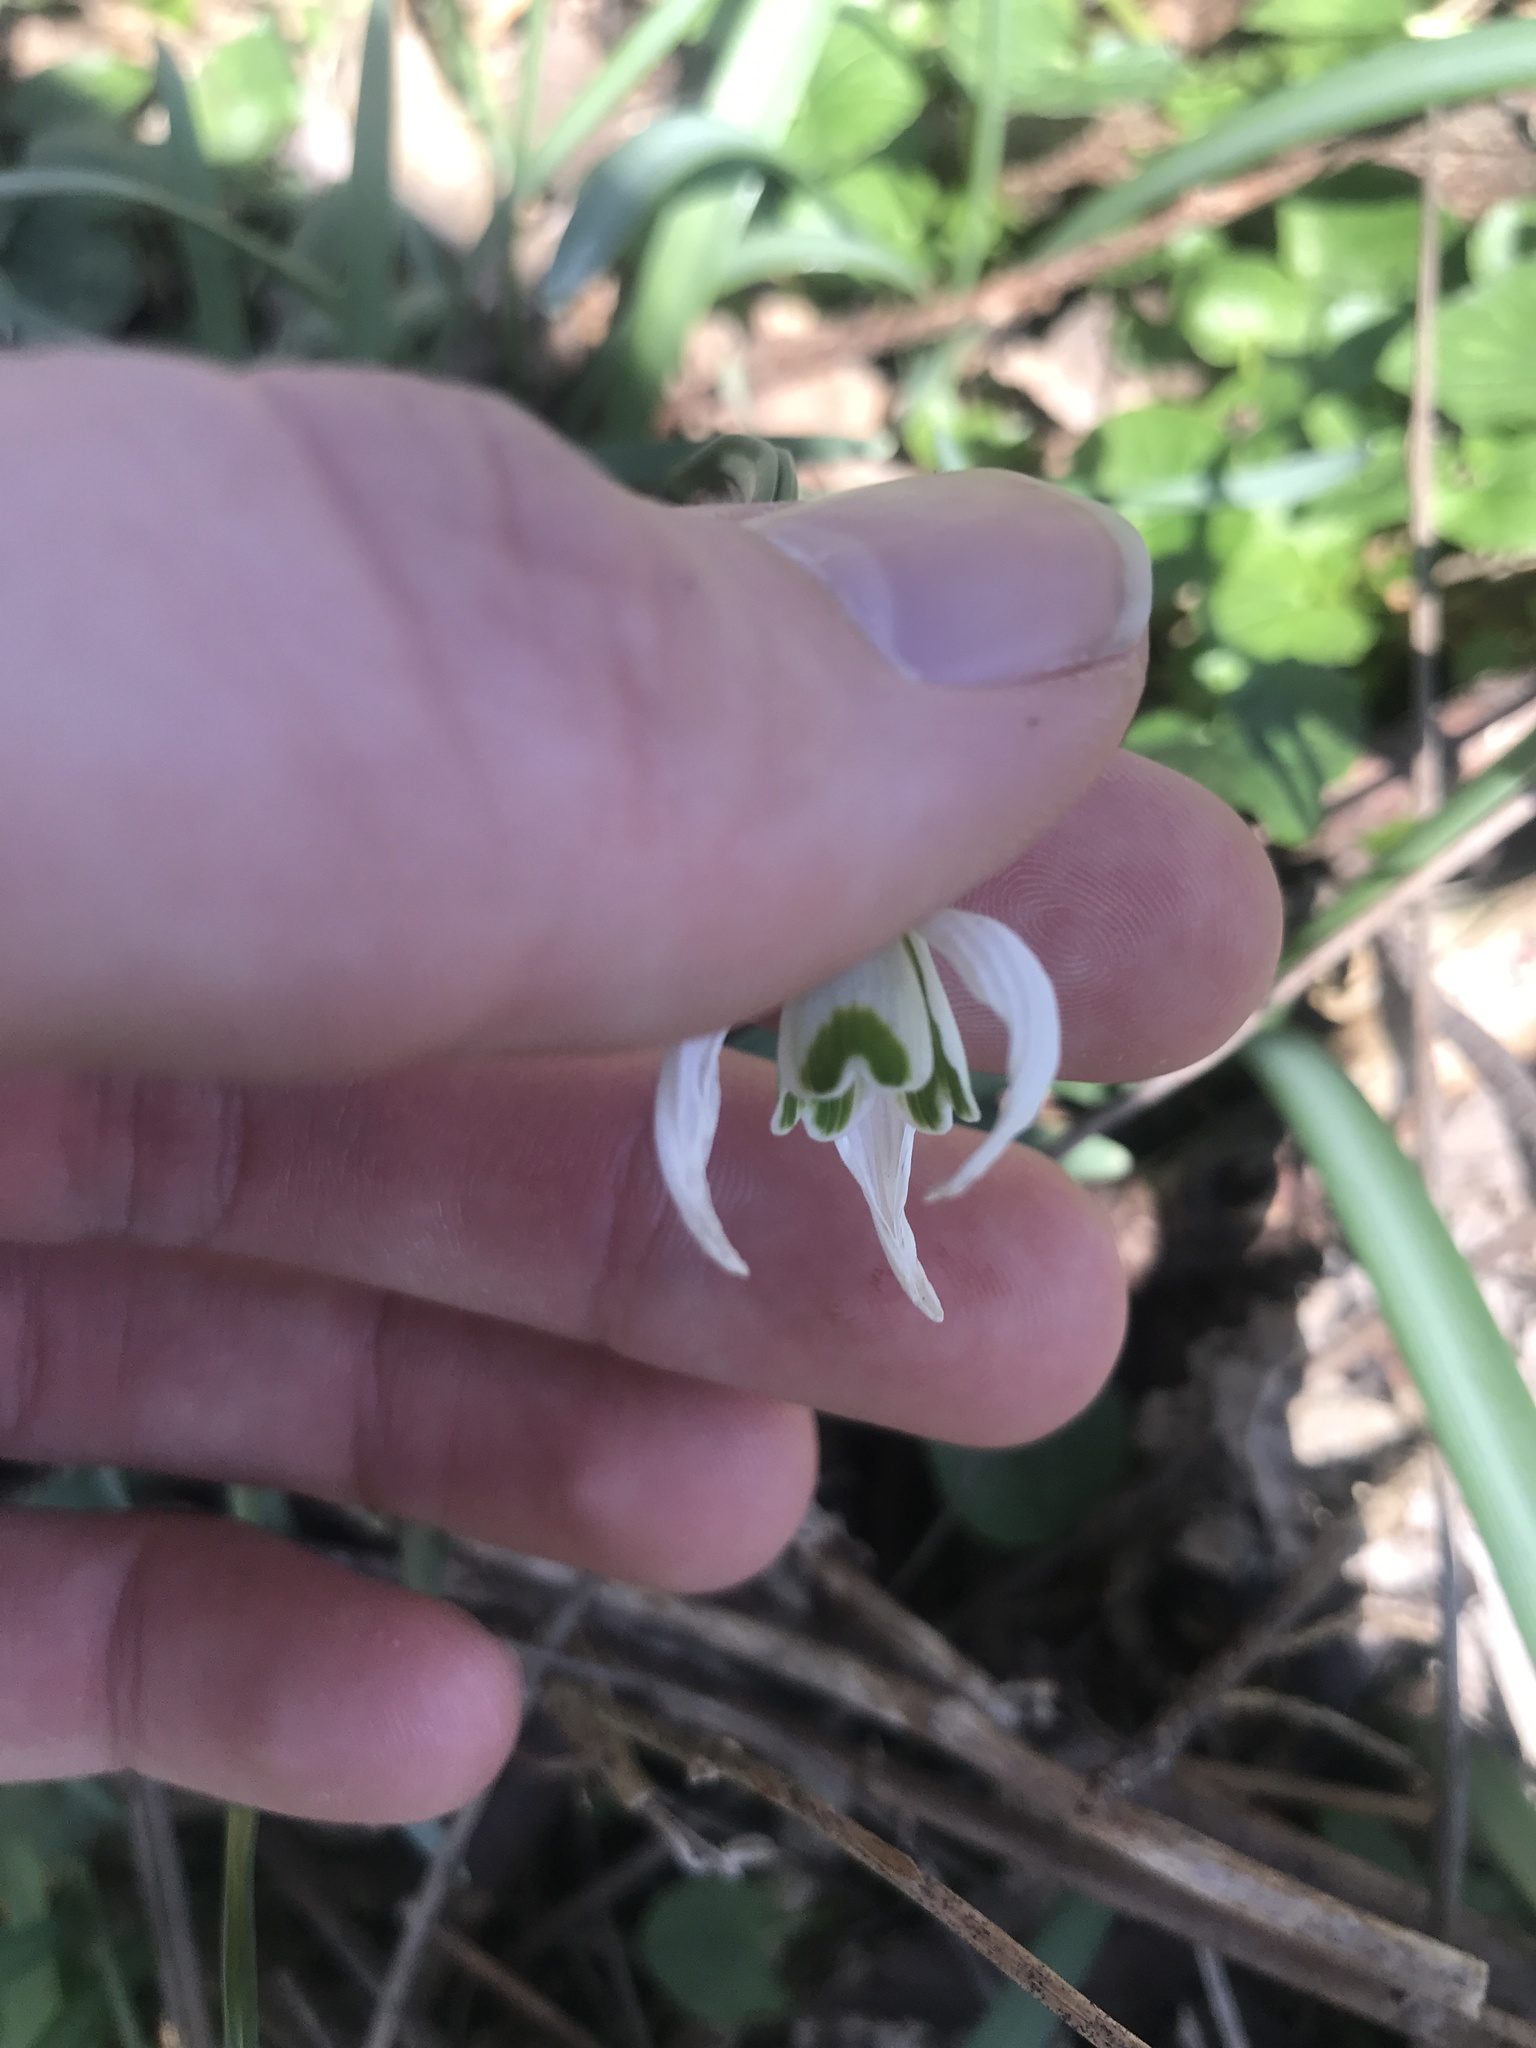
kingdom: Plantae
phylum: Tracheophyta
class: Liliopsida
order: Asparagales
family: Amaryllidaceae
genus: Galanthus
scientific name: Galanthus nivalis
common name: Snowdrop
